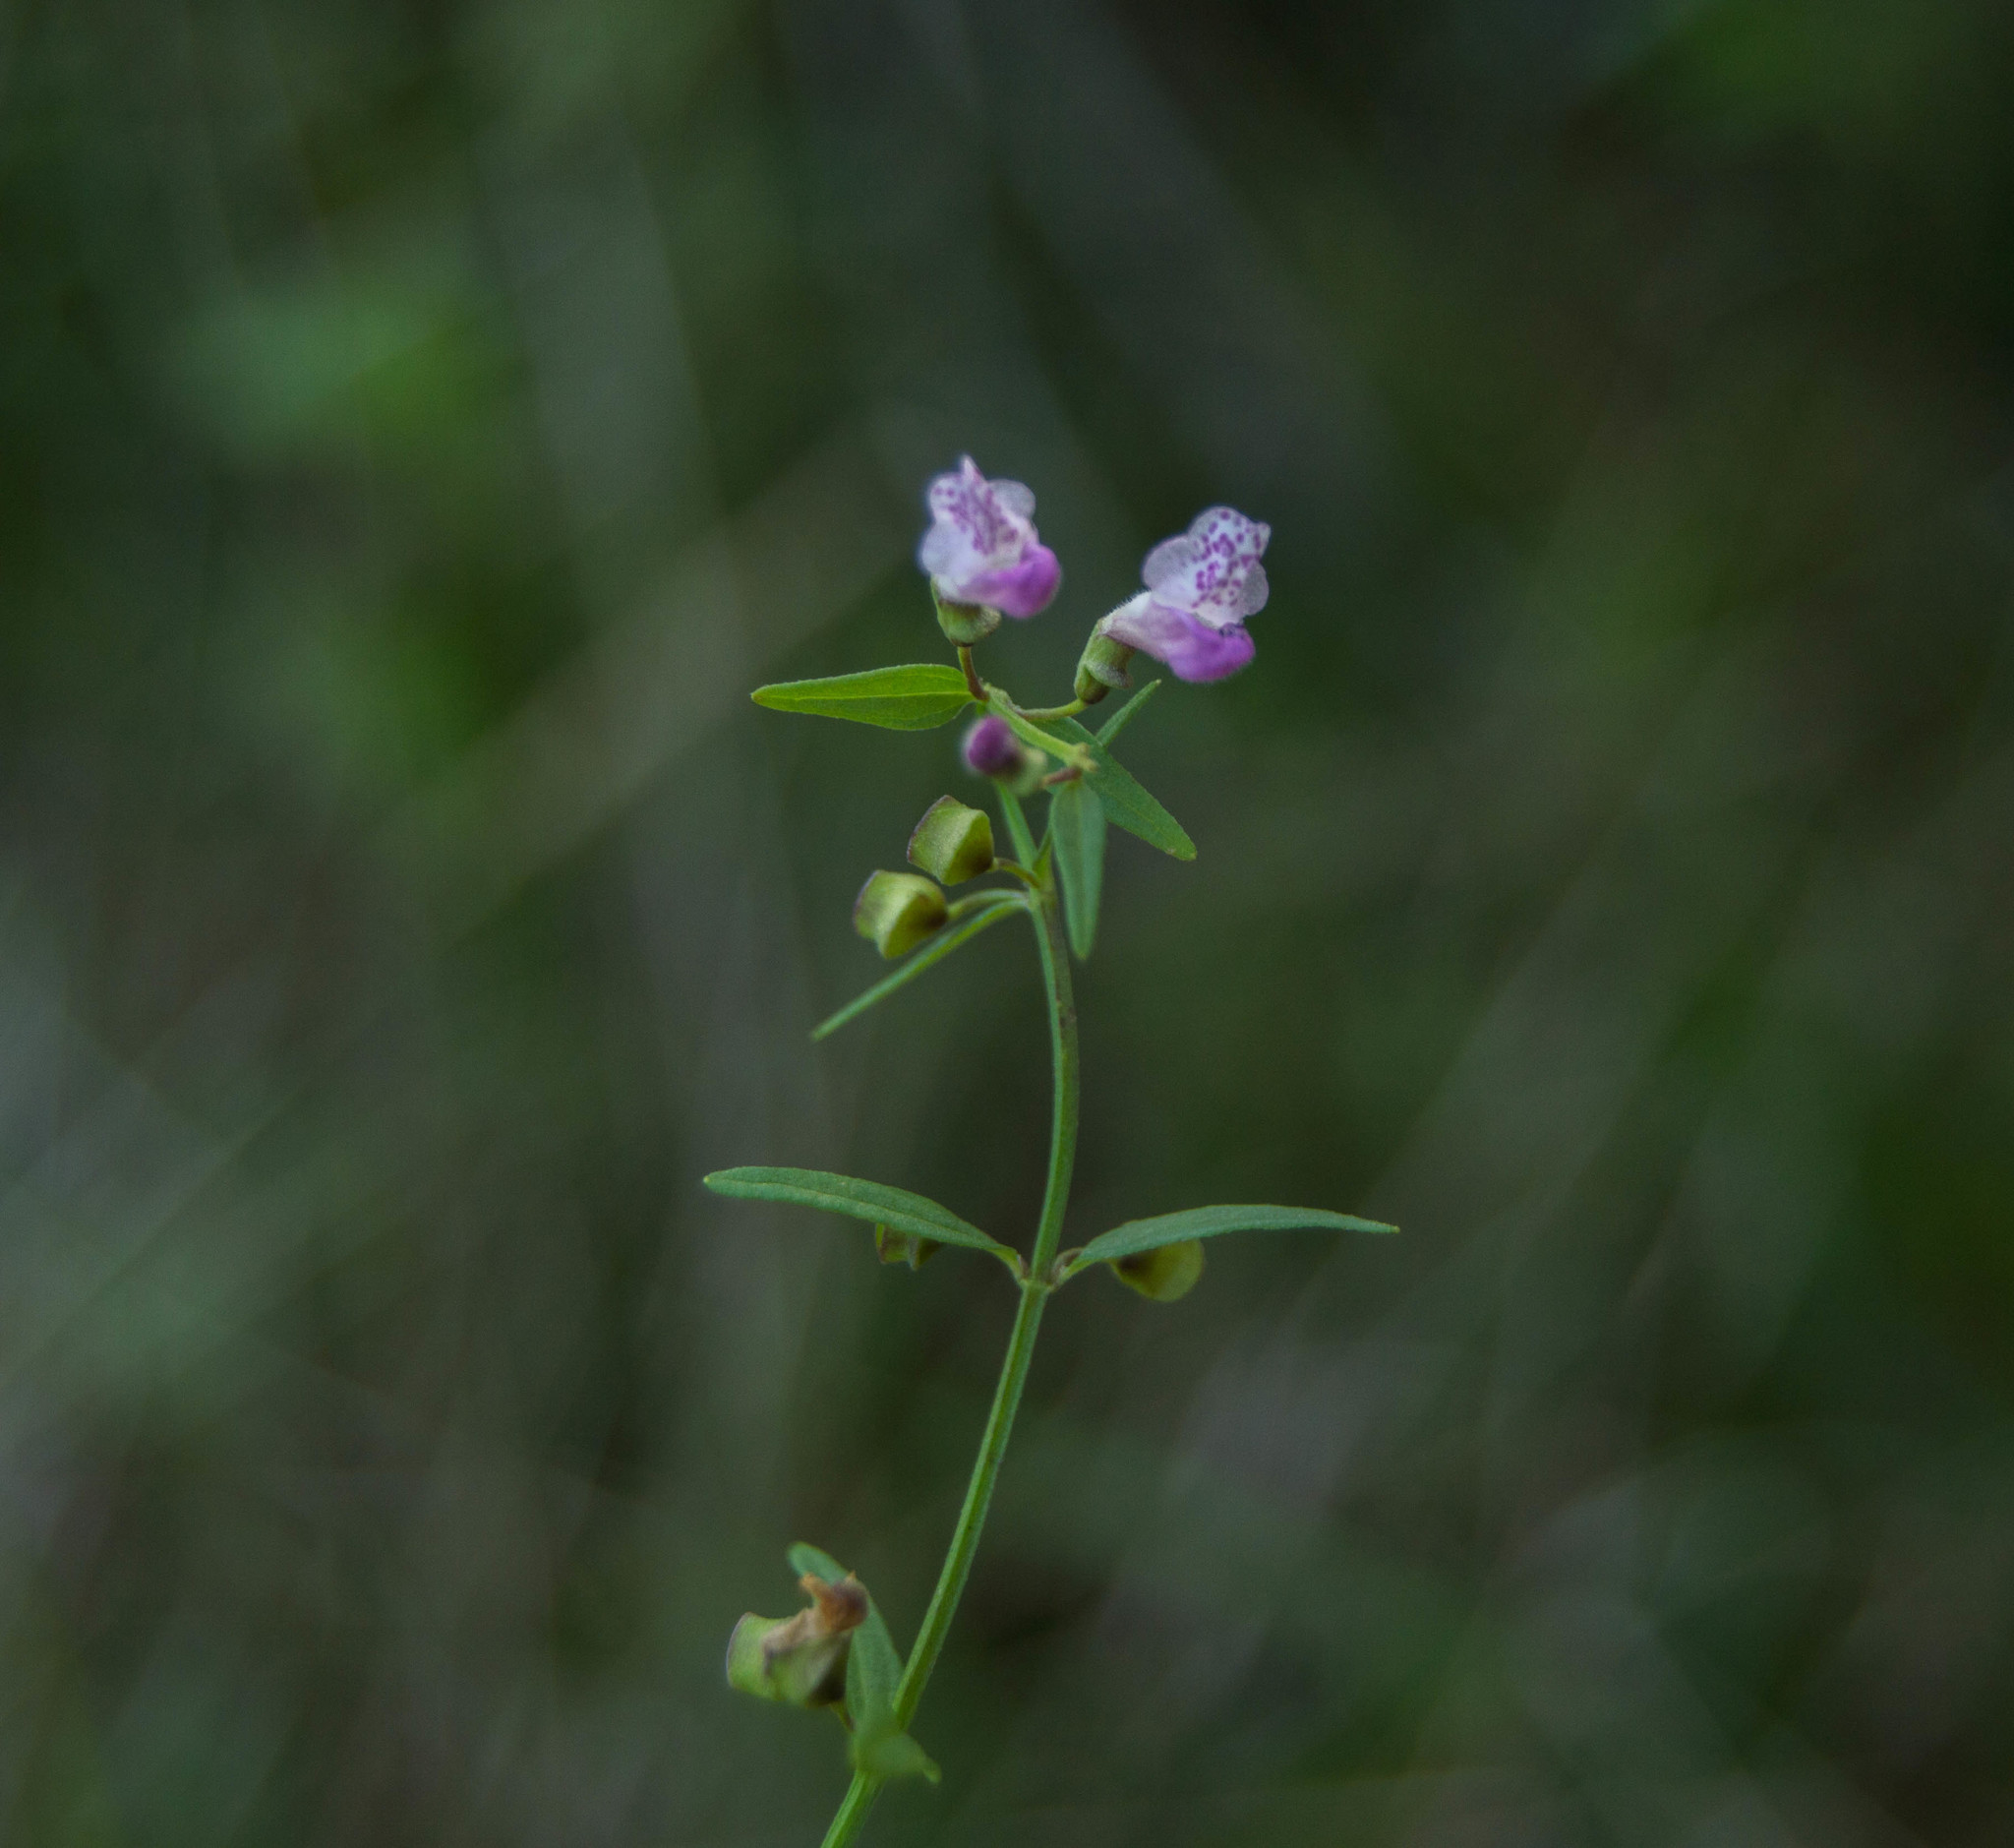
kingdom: Plantae
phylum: Tracheophyta
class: Magnoliopsida
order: Lamiales
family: Lamiaceae
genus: Scutellaria
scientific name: Scutellaria racemosa
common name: South american skullcap
